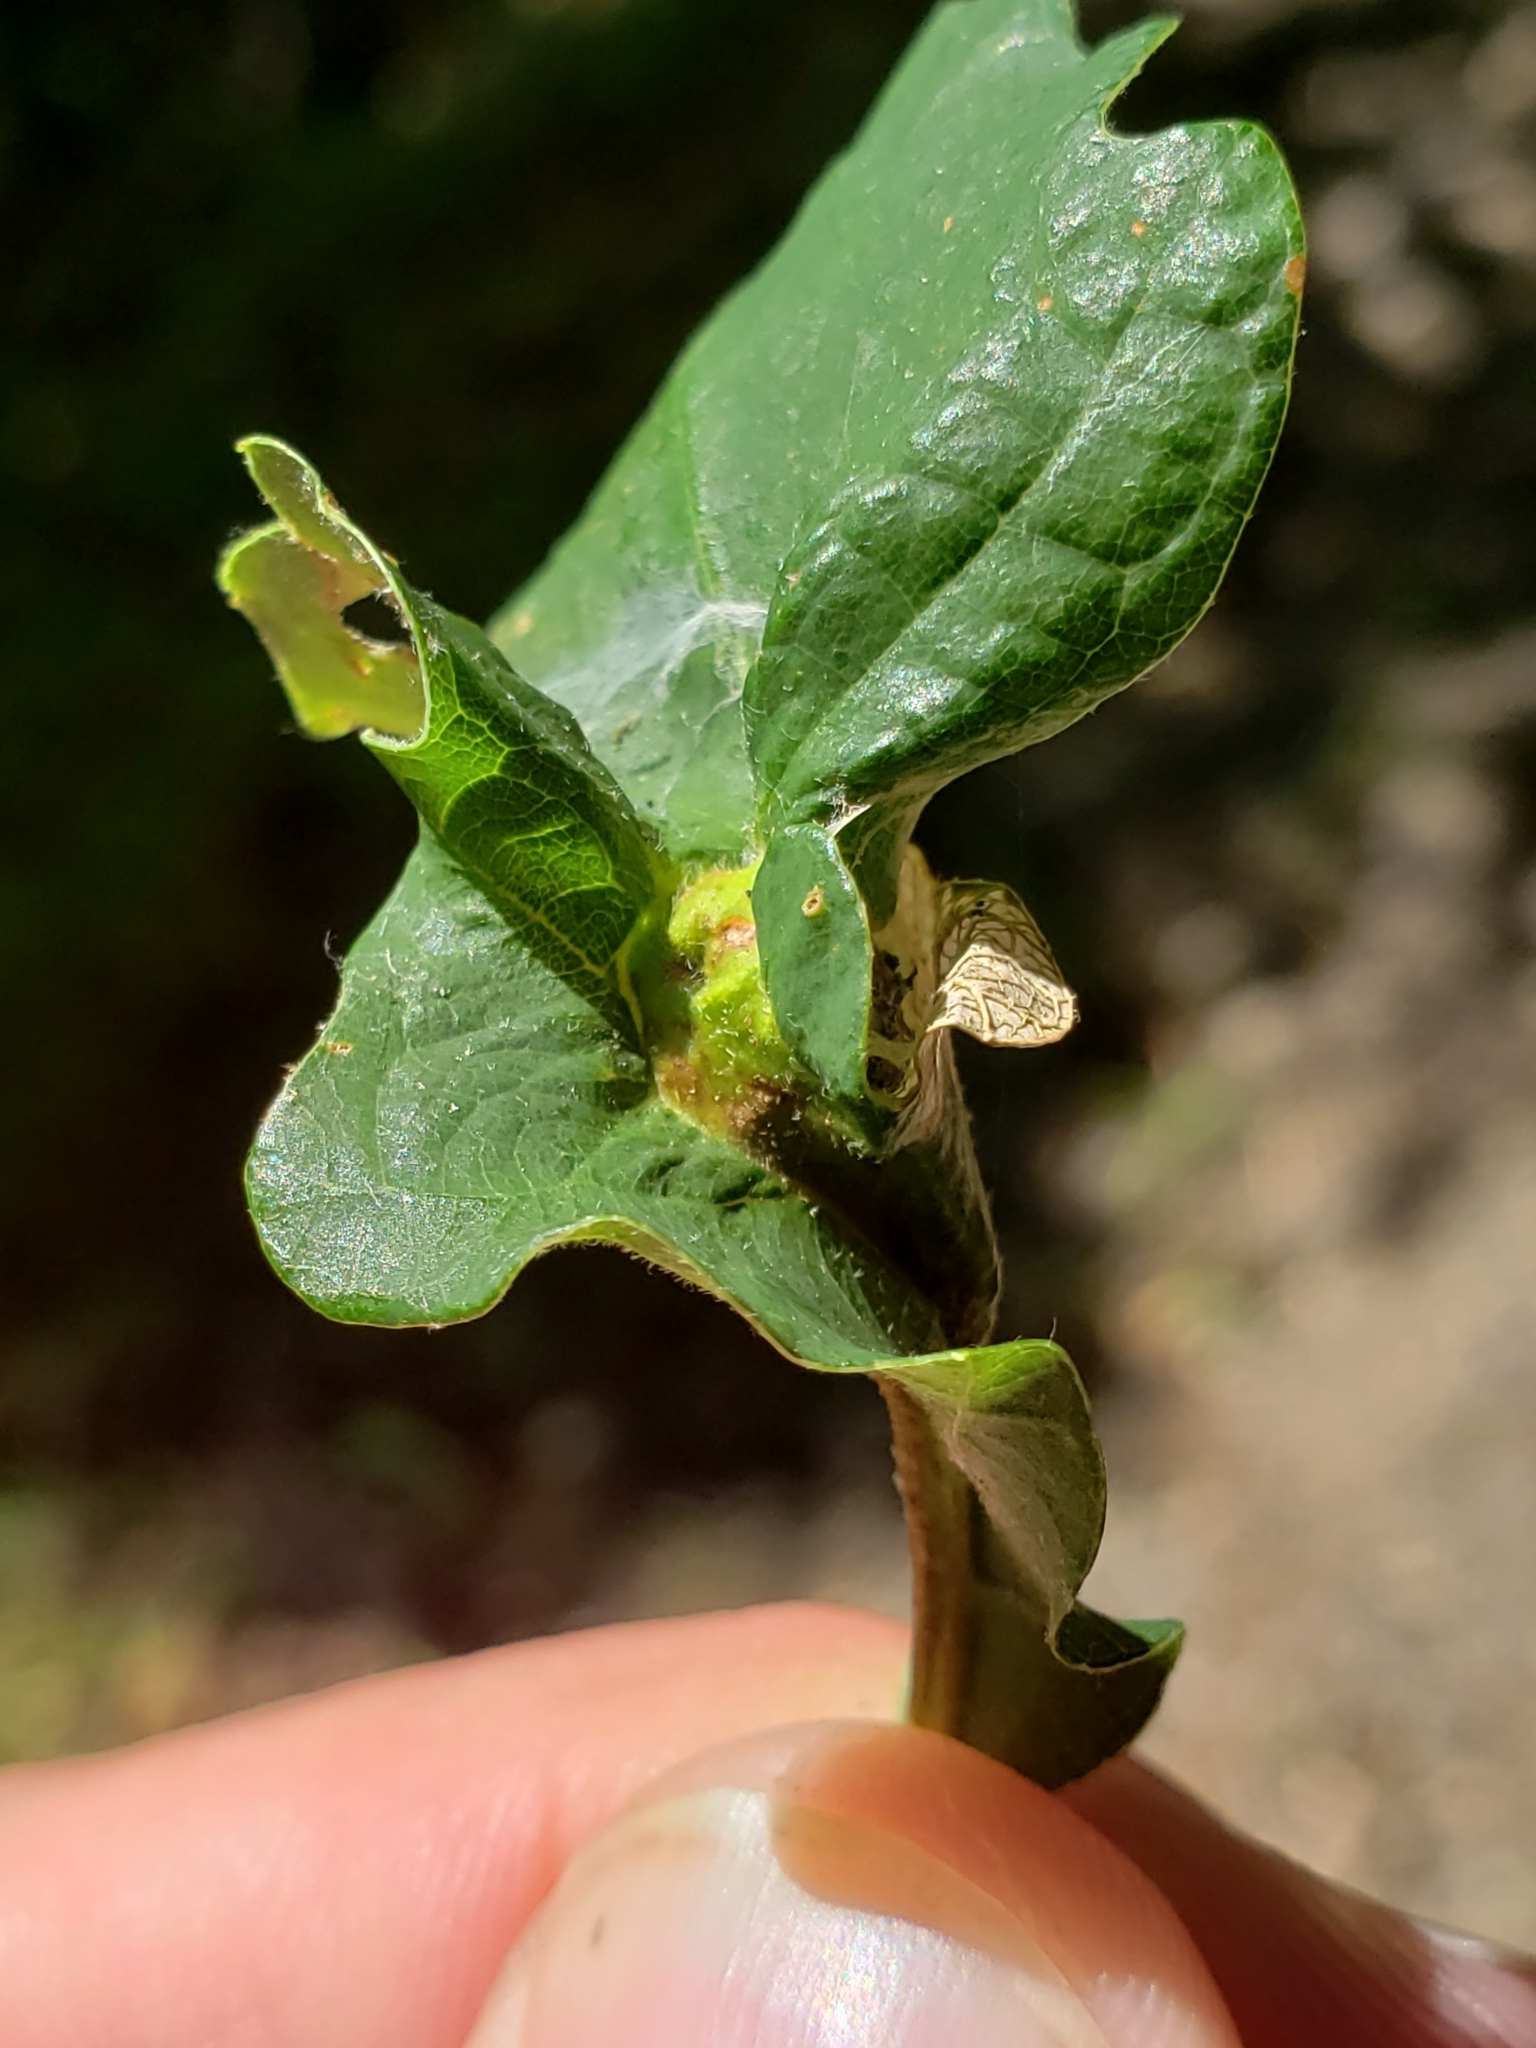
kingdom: Animalia
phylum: Arthropoda
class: Insecta
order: Hymenoptera
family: Cynipidae
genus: Andricus
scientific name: Andricus
